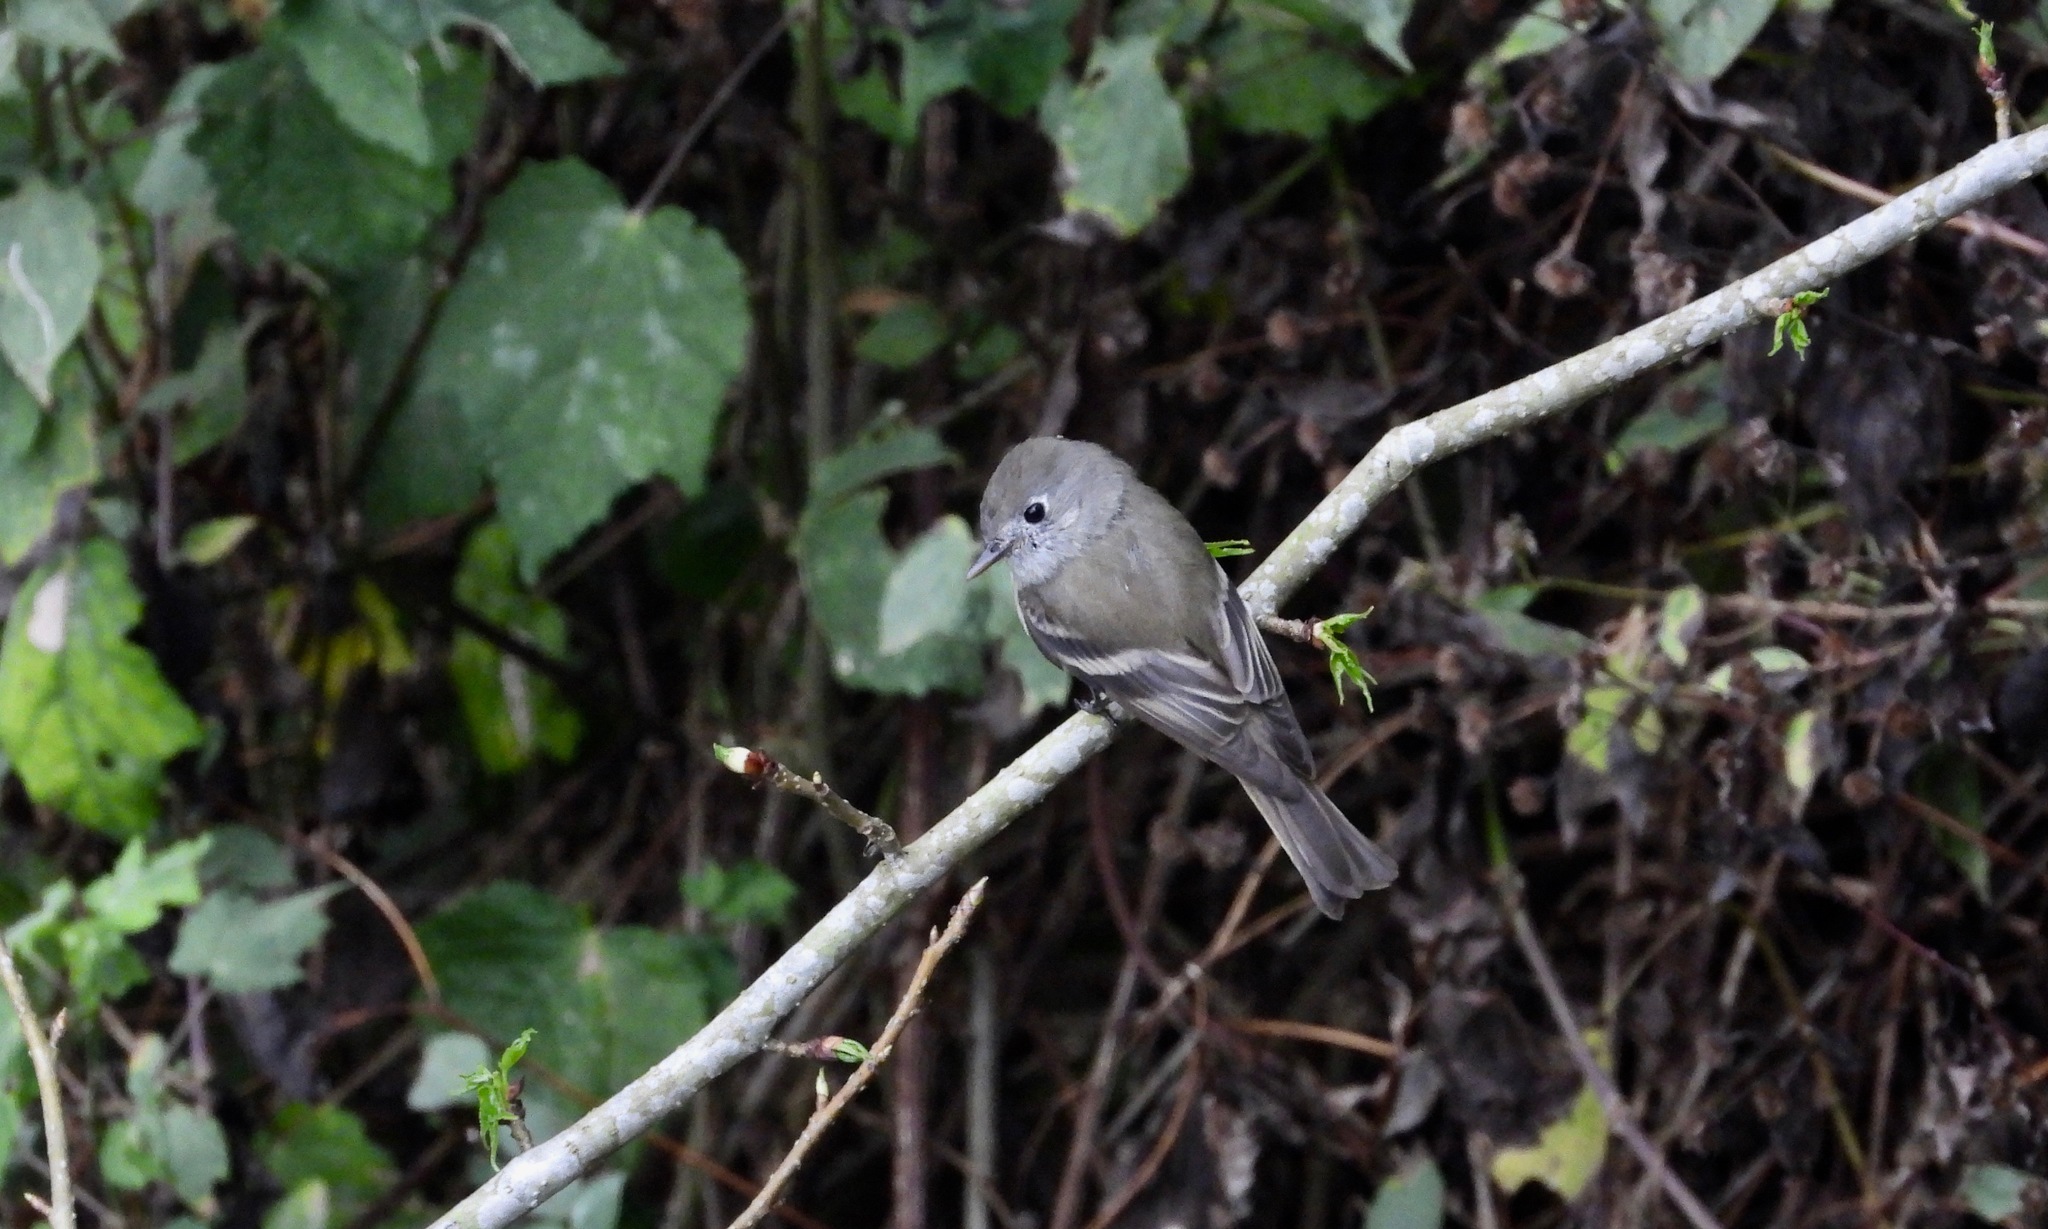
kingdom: Animalia
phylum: Chordata
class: Aves
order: Passeriformes
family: Tyrannidae
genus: Empidonax
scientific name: Empidonax hammondii
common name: Hammond's flycatcher
